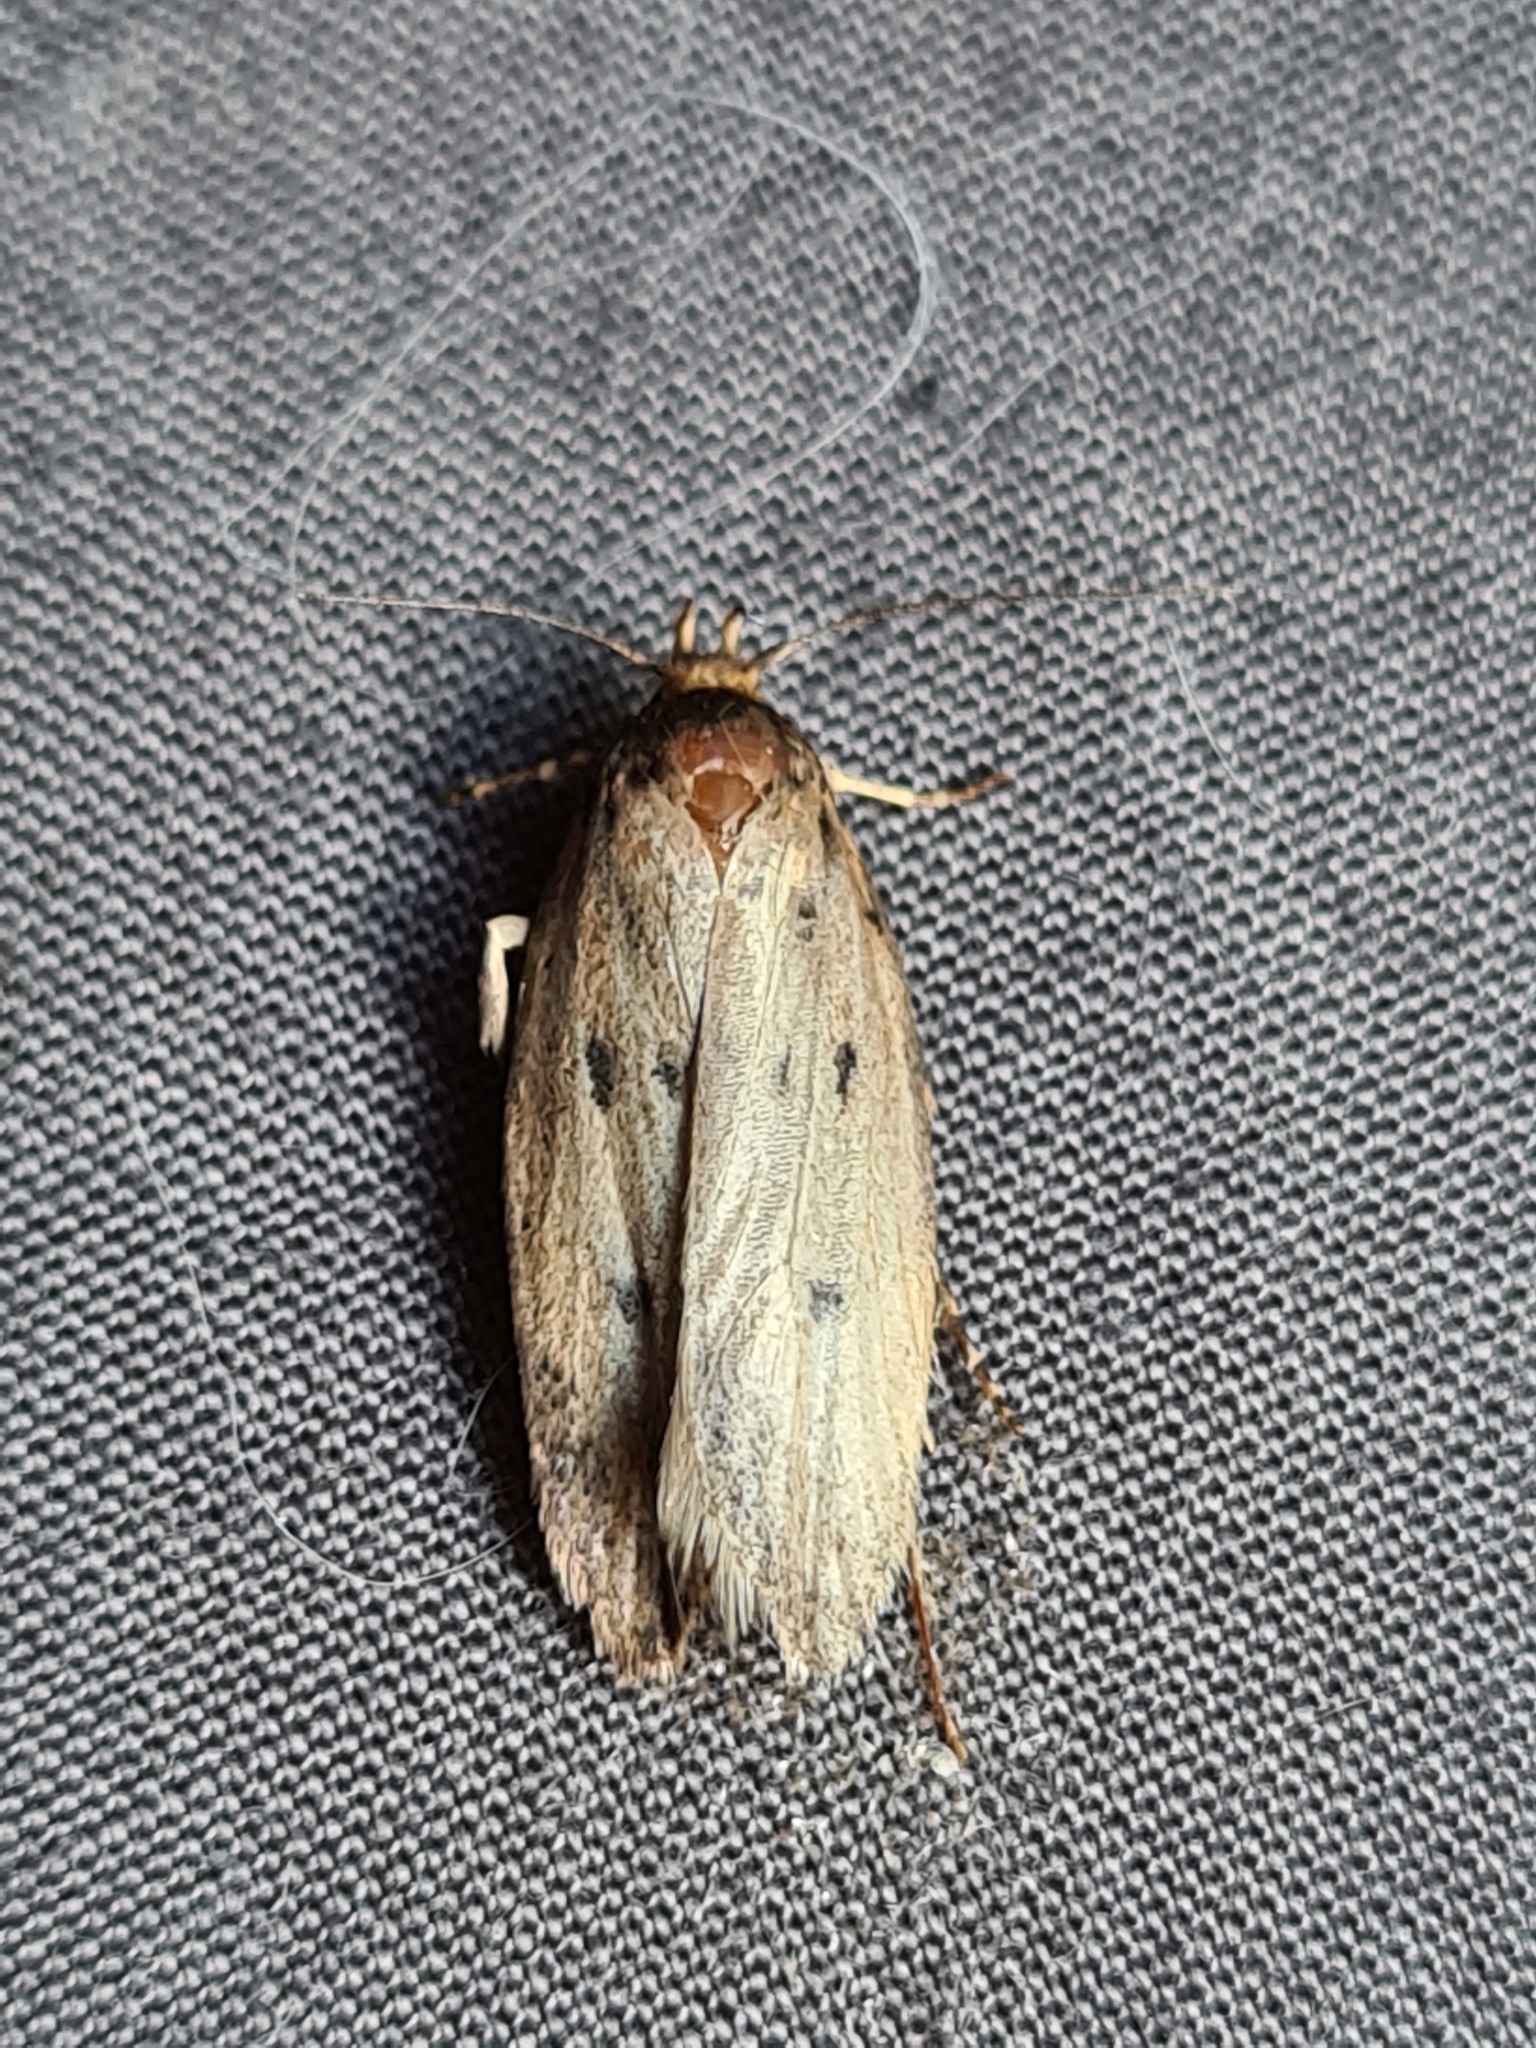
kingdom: Animalia
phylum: Arthropoda
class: Insecta
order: Lepidoptera
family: Oecophoridae
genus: Hofmannophila
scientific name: Hofmannophila pseudospretella
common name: Brown house moth
